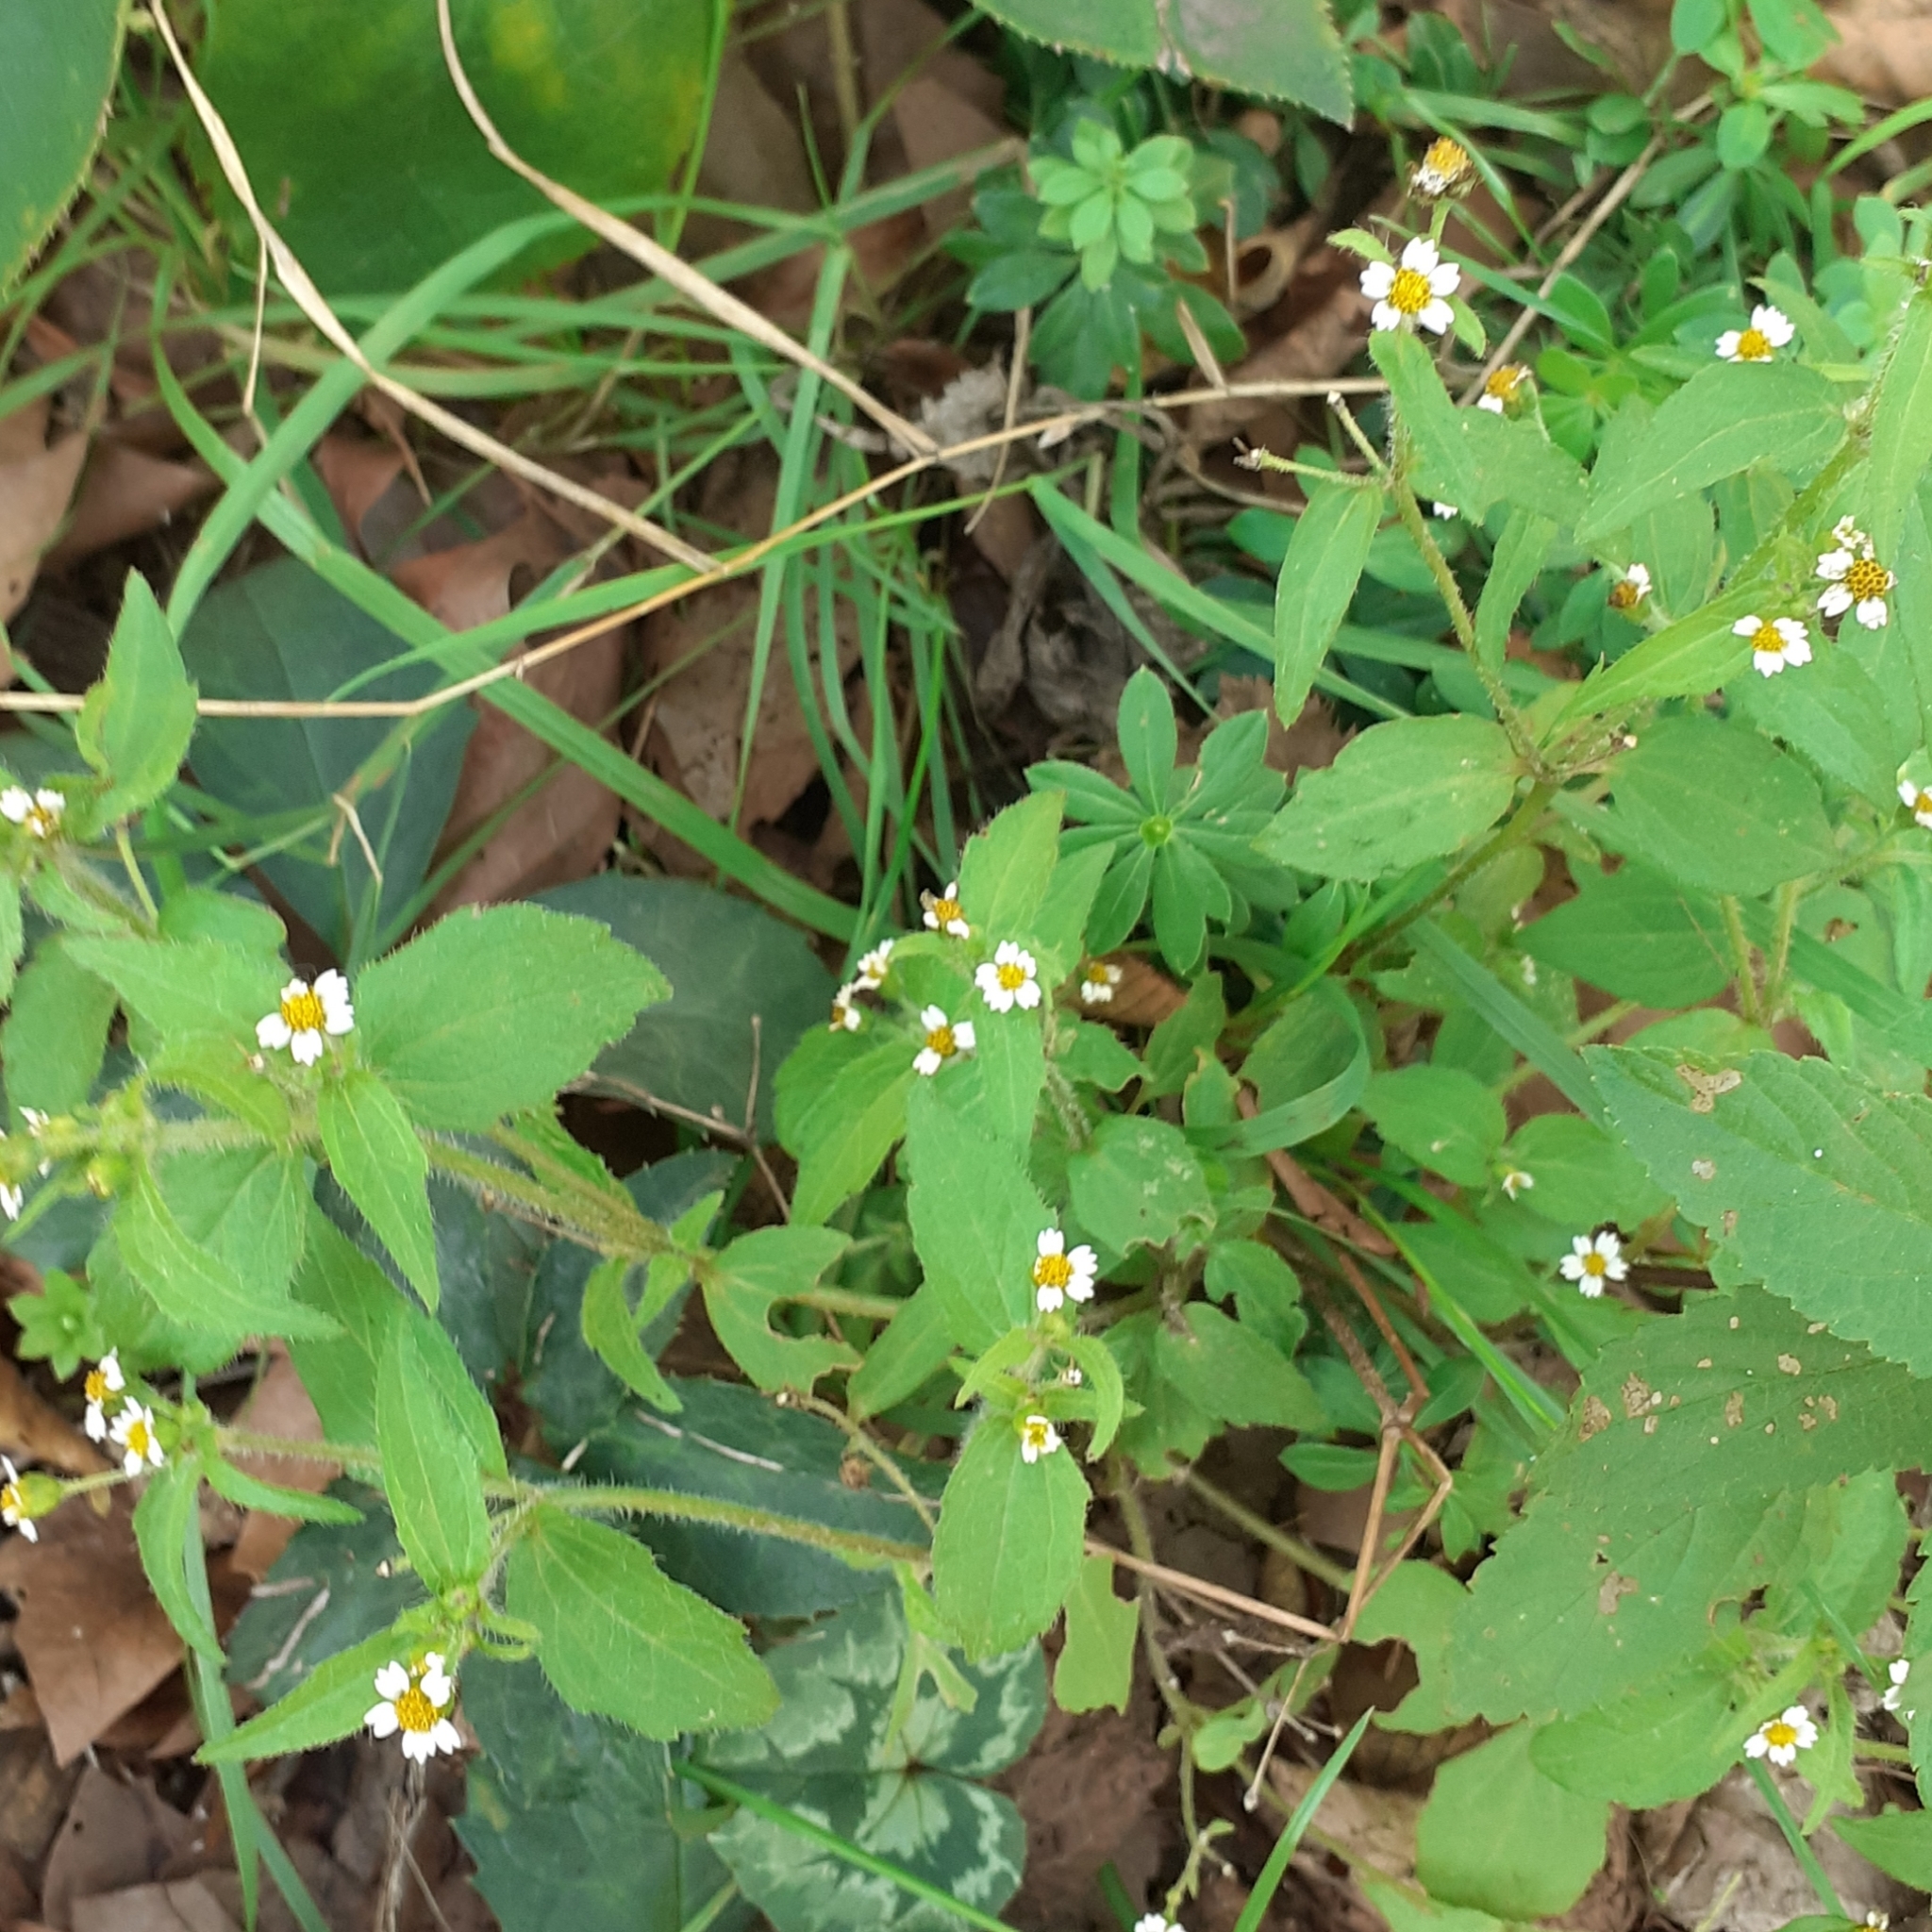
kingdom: Plantae
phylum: Tracheophyta
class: Magnoliopsida
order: Asterales
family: Asteraceae
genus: Galinsoga
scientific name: Galinsoga quadriradiata
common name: Shaggy soldier
